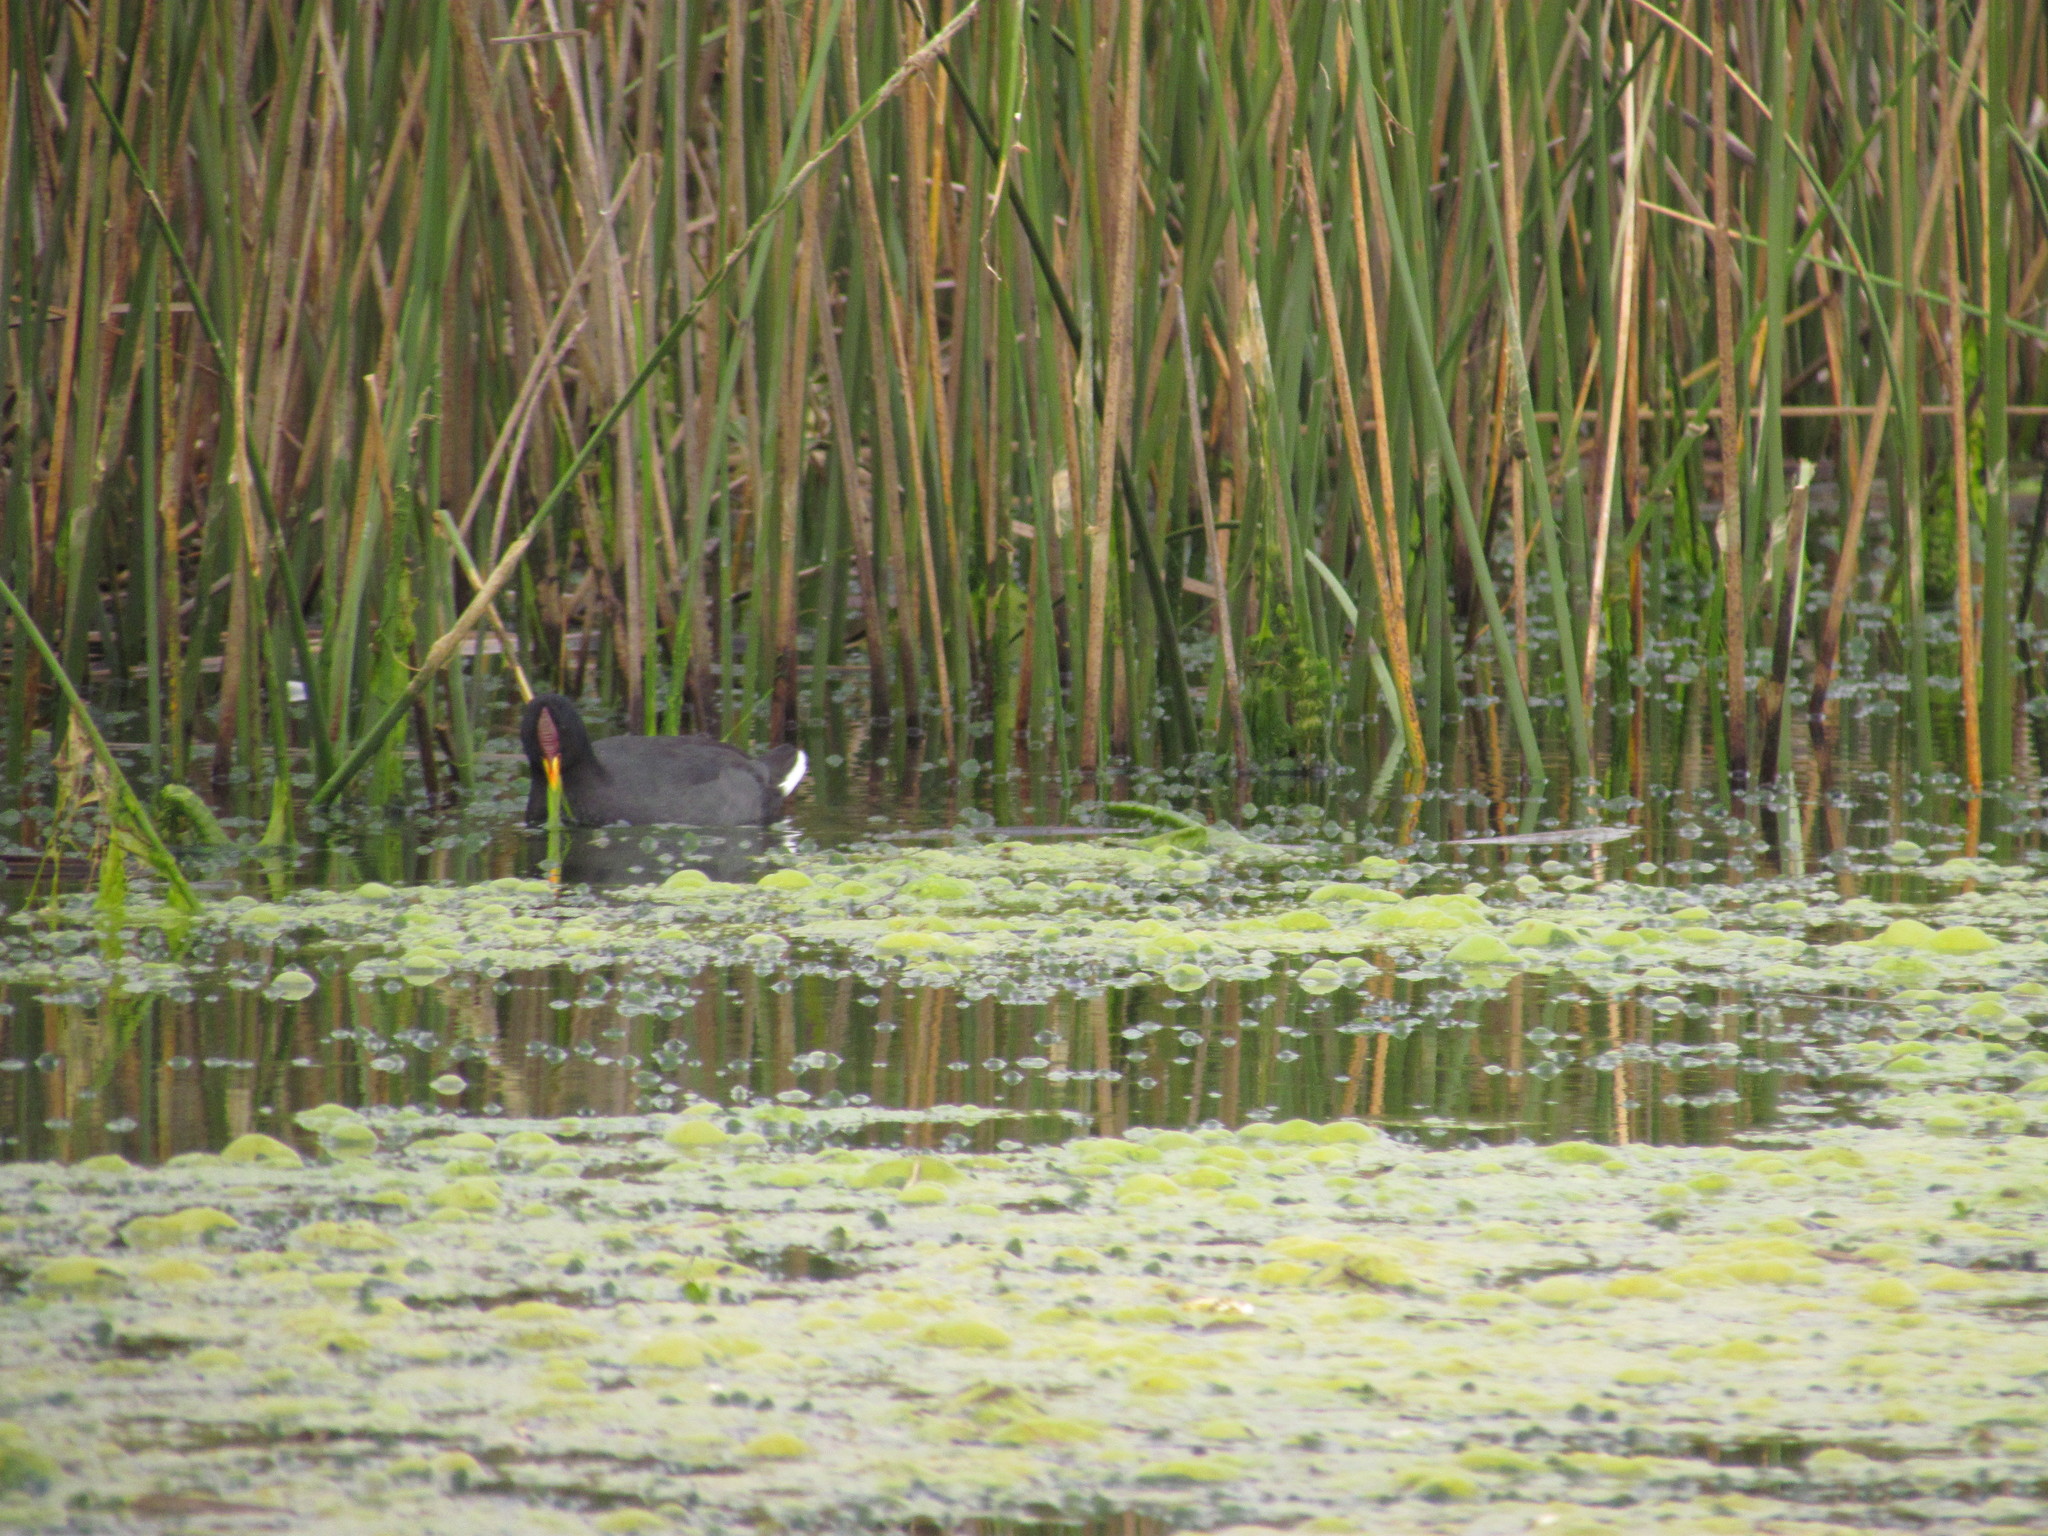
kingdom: Animalia
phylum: Chordata
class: Aves
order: Gruiformes
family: Rallidae
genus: Fulica
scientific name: Fulica rufifrons
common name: Red-fronted coot
